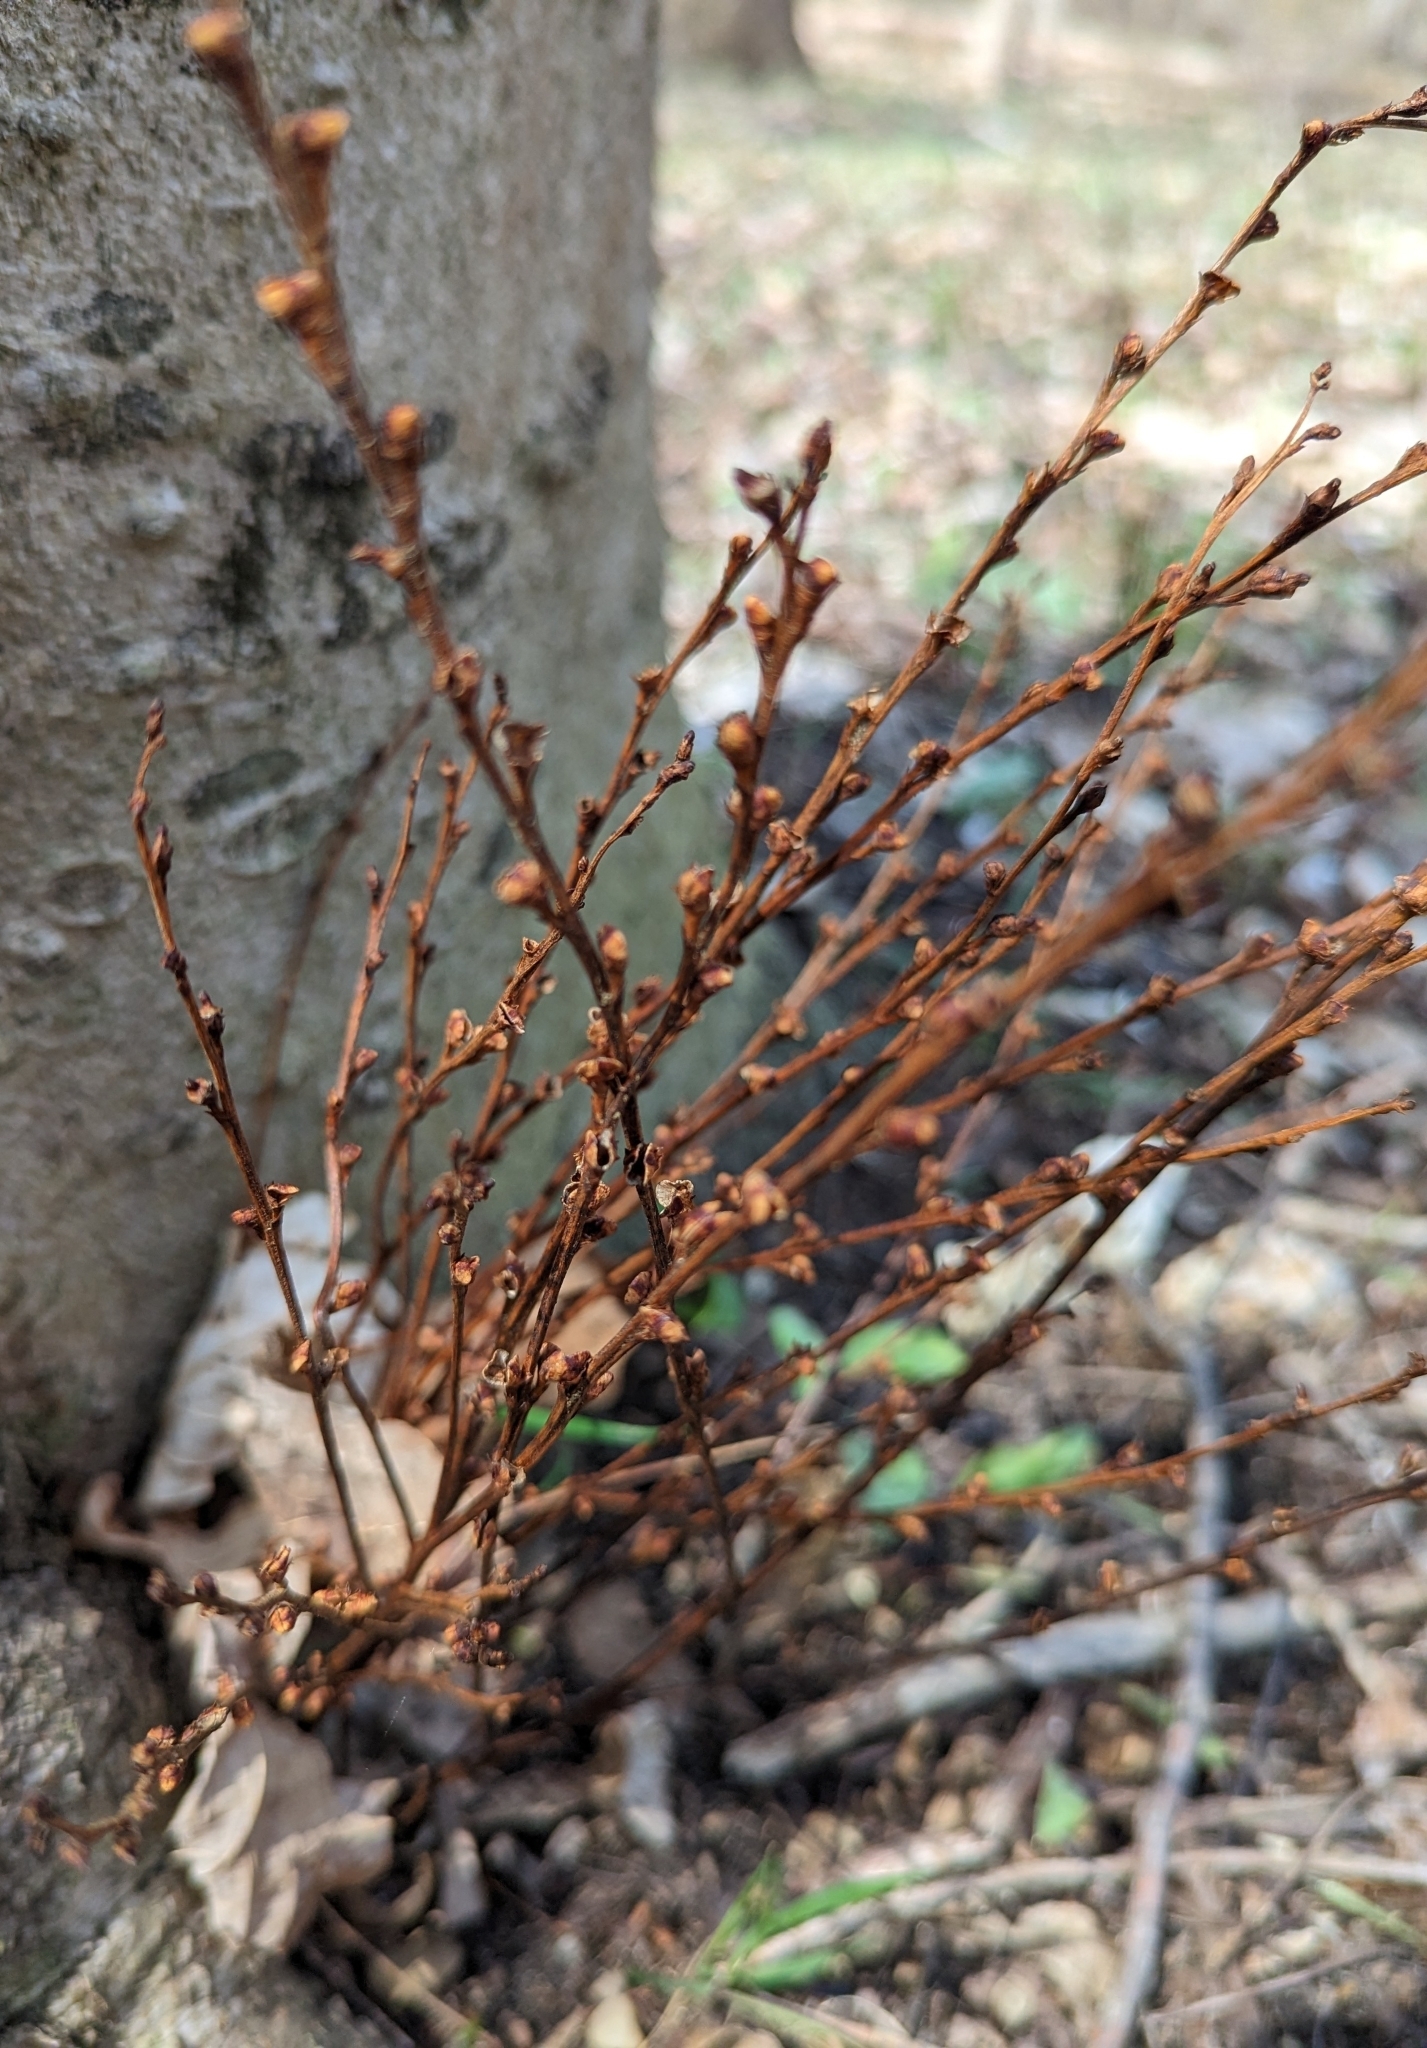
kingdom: Plantae
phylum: Tracheophyta
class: Magnoliopsida
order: Lamiales
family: Orobanchaceae
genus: Epifagus
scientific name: Epifagus virginiana
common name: Beechdrops
